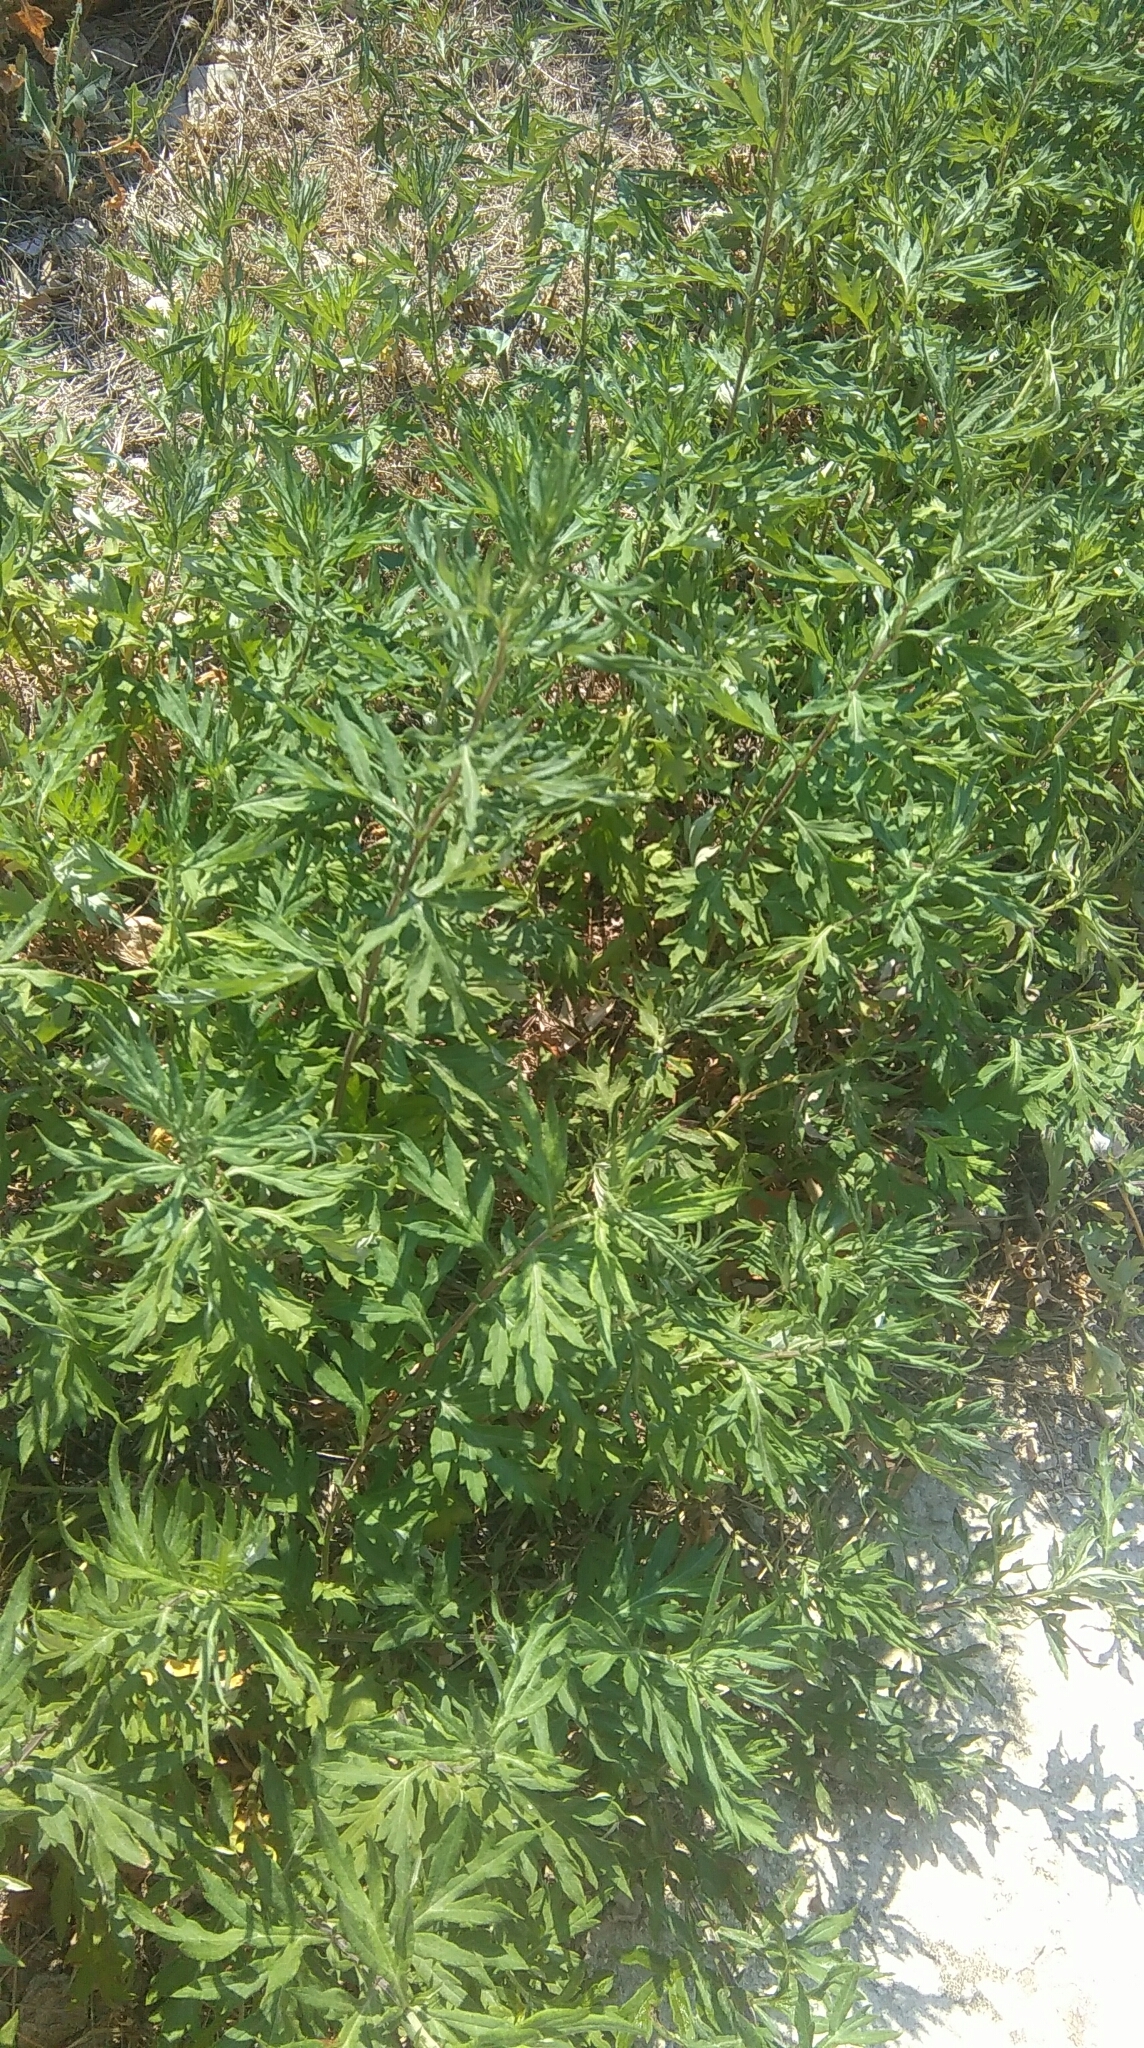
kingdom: Plantae
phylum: Tracheophyta
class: Magnoliopsida
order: Asterales
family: Asteraceae
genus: Artemisia
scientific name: Artemisia verlotiorum
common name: Chinese mugwort
